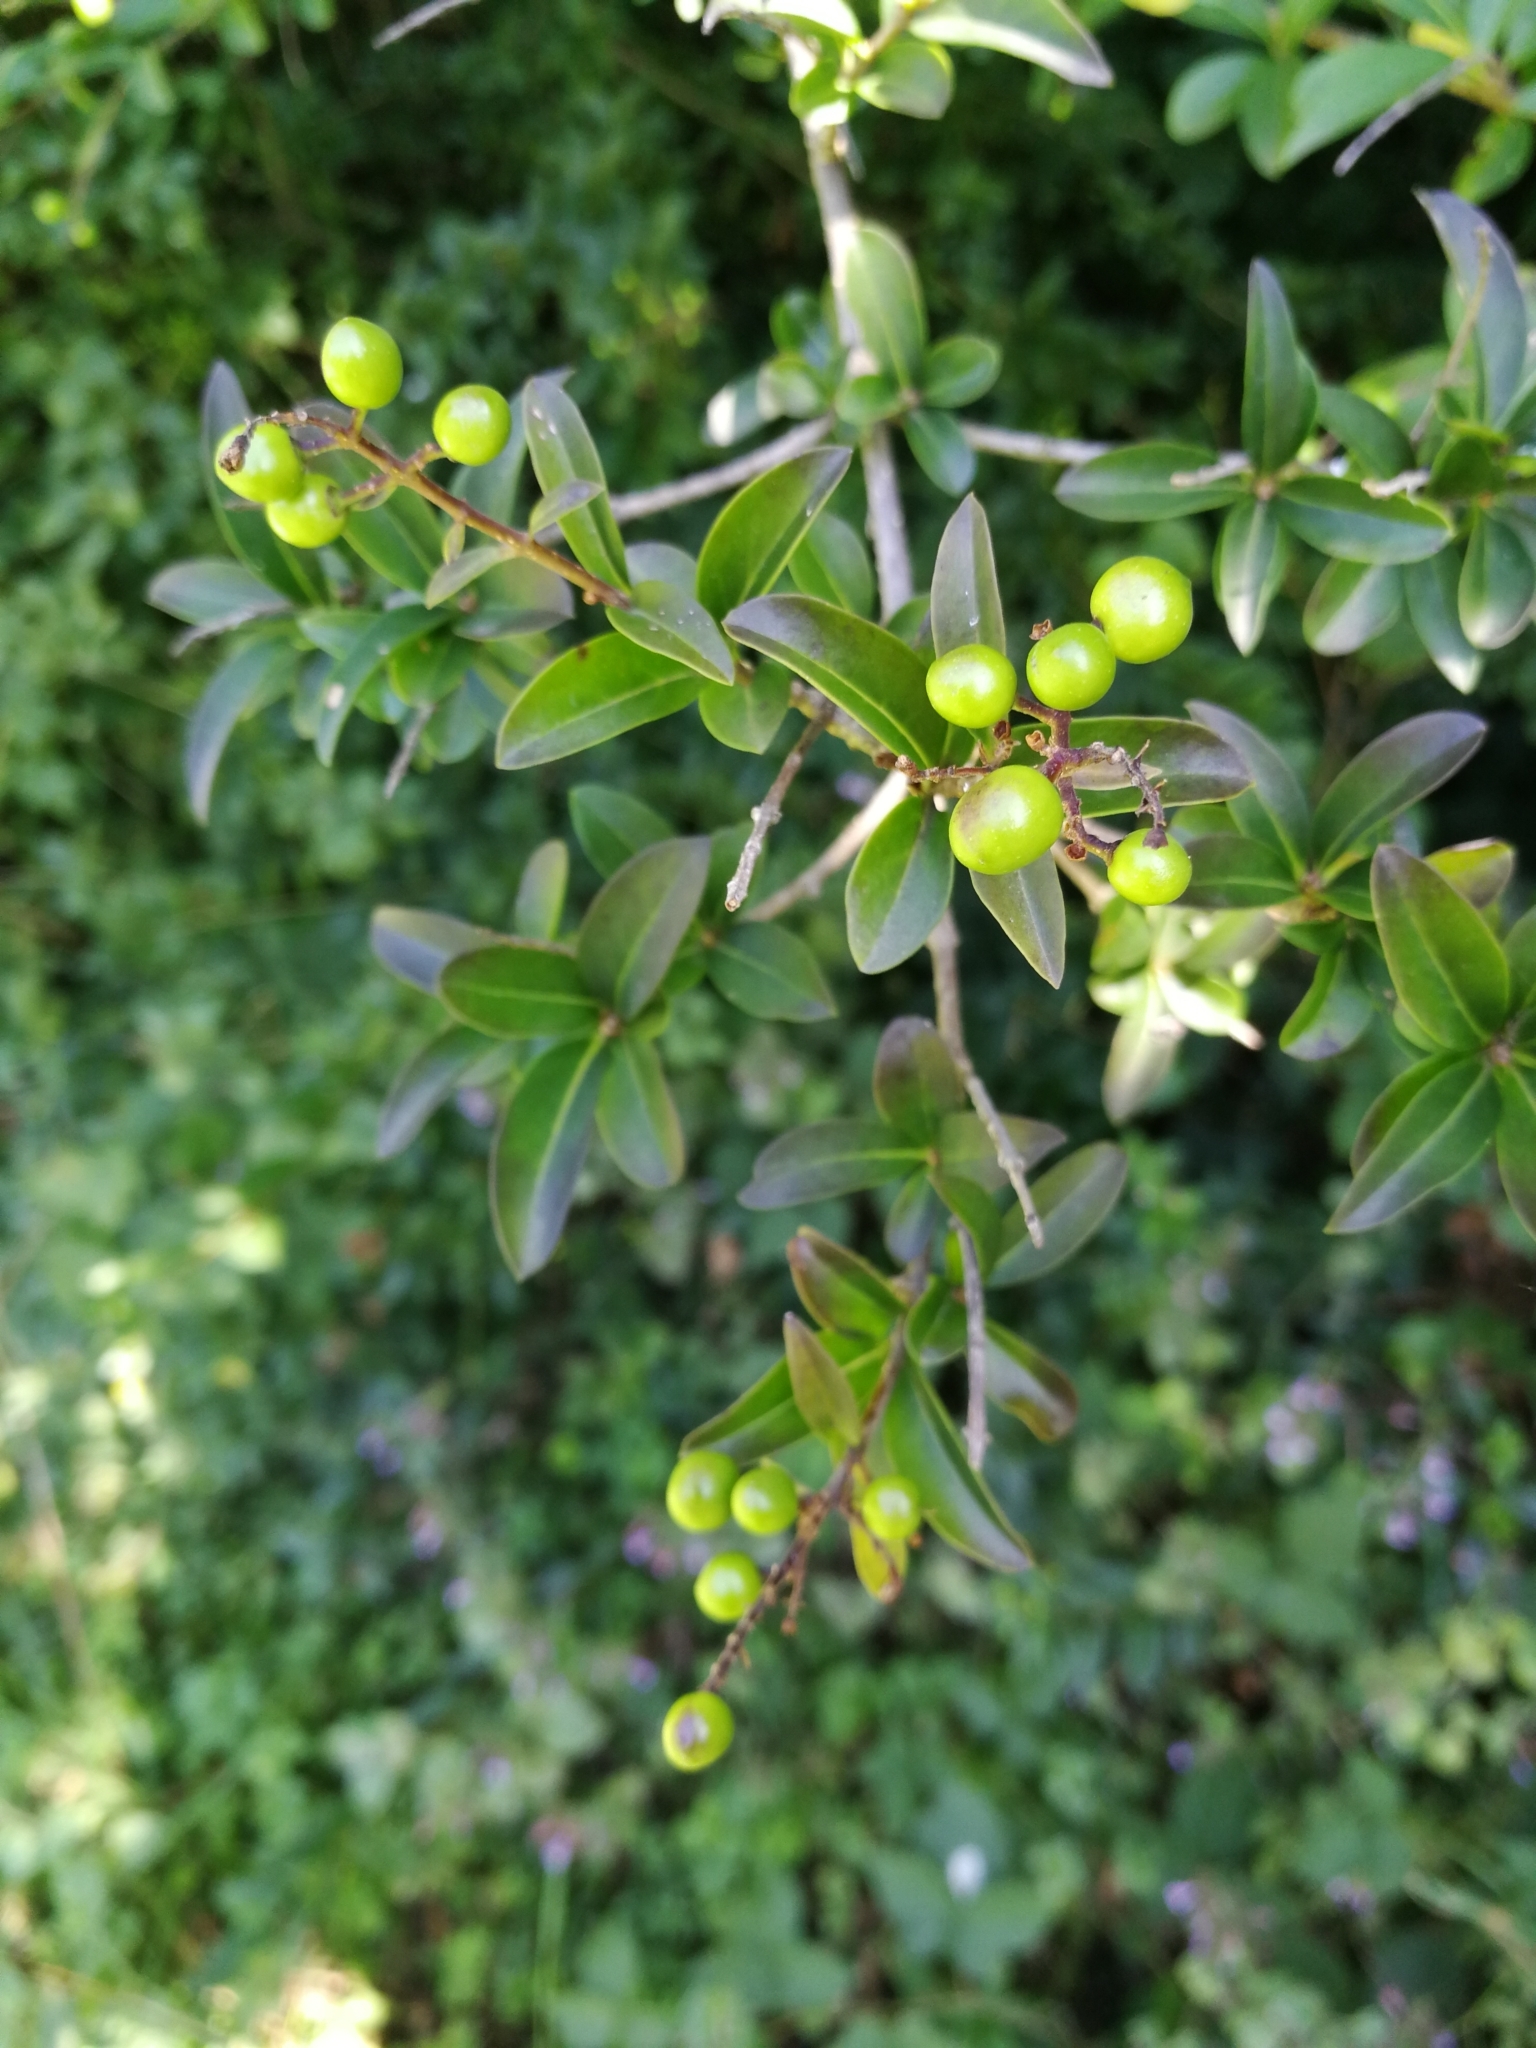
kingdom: Plantae
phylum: Tracheophyta
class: Magnoliopsida
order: Lamiales
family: Oleaceae
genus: Ligustrum
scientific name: Ligustrum vulgare
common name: Wild privet
